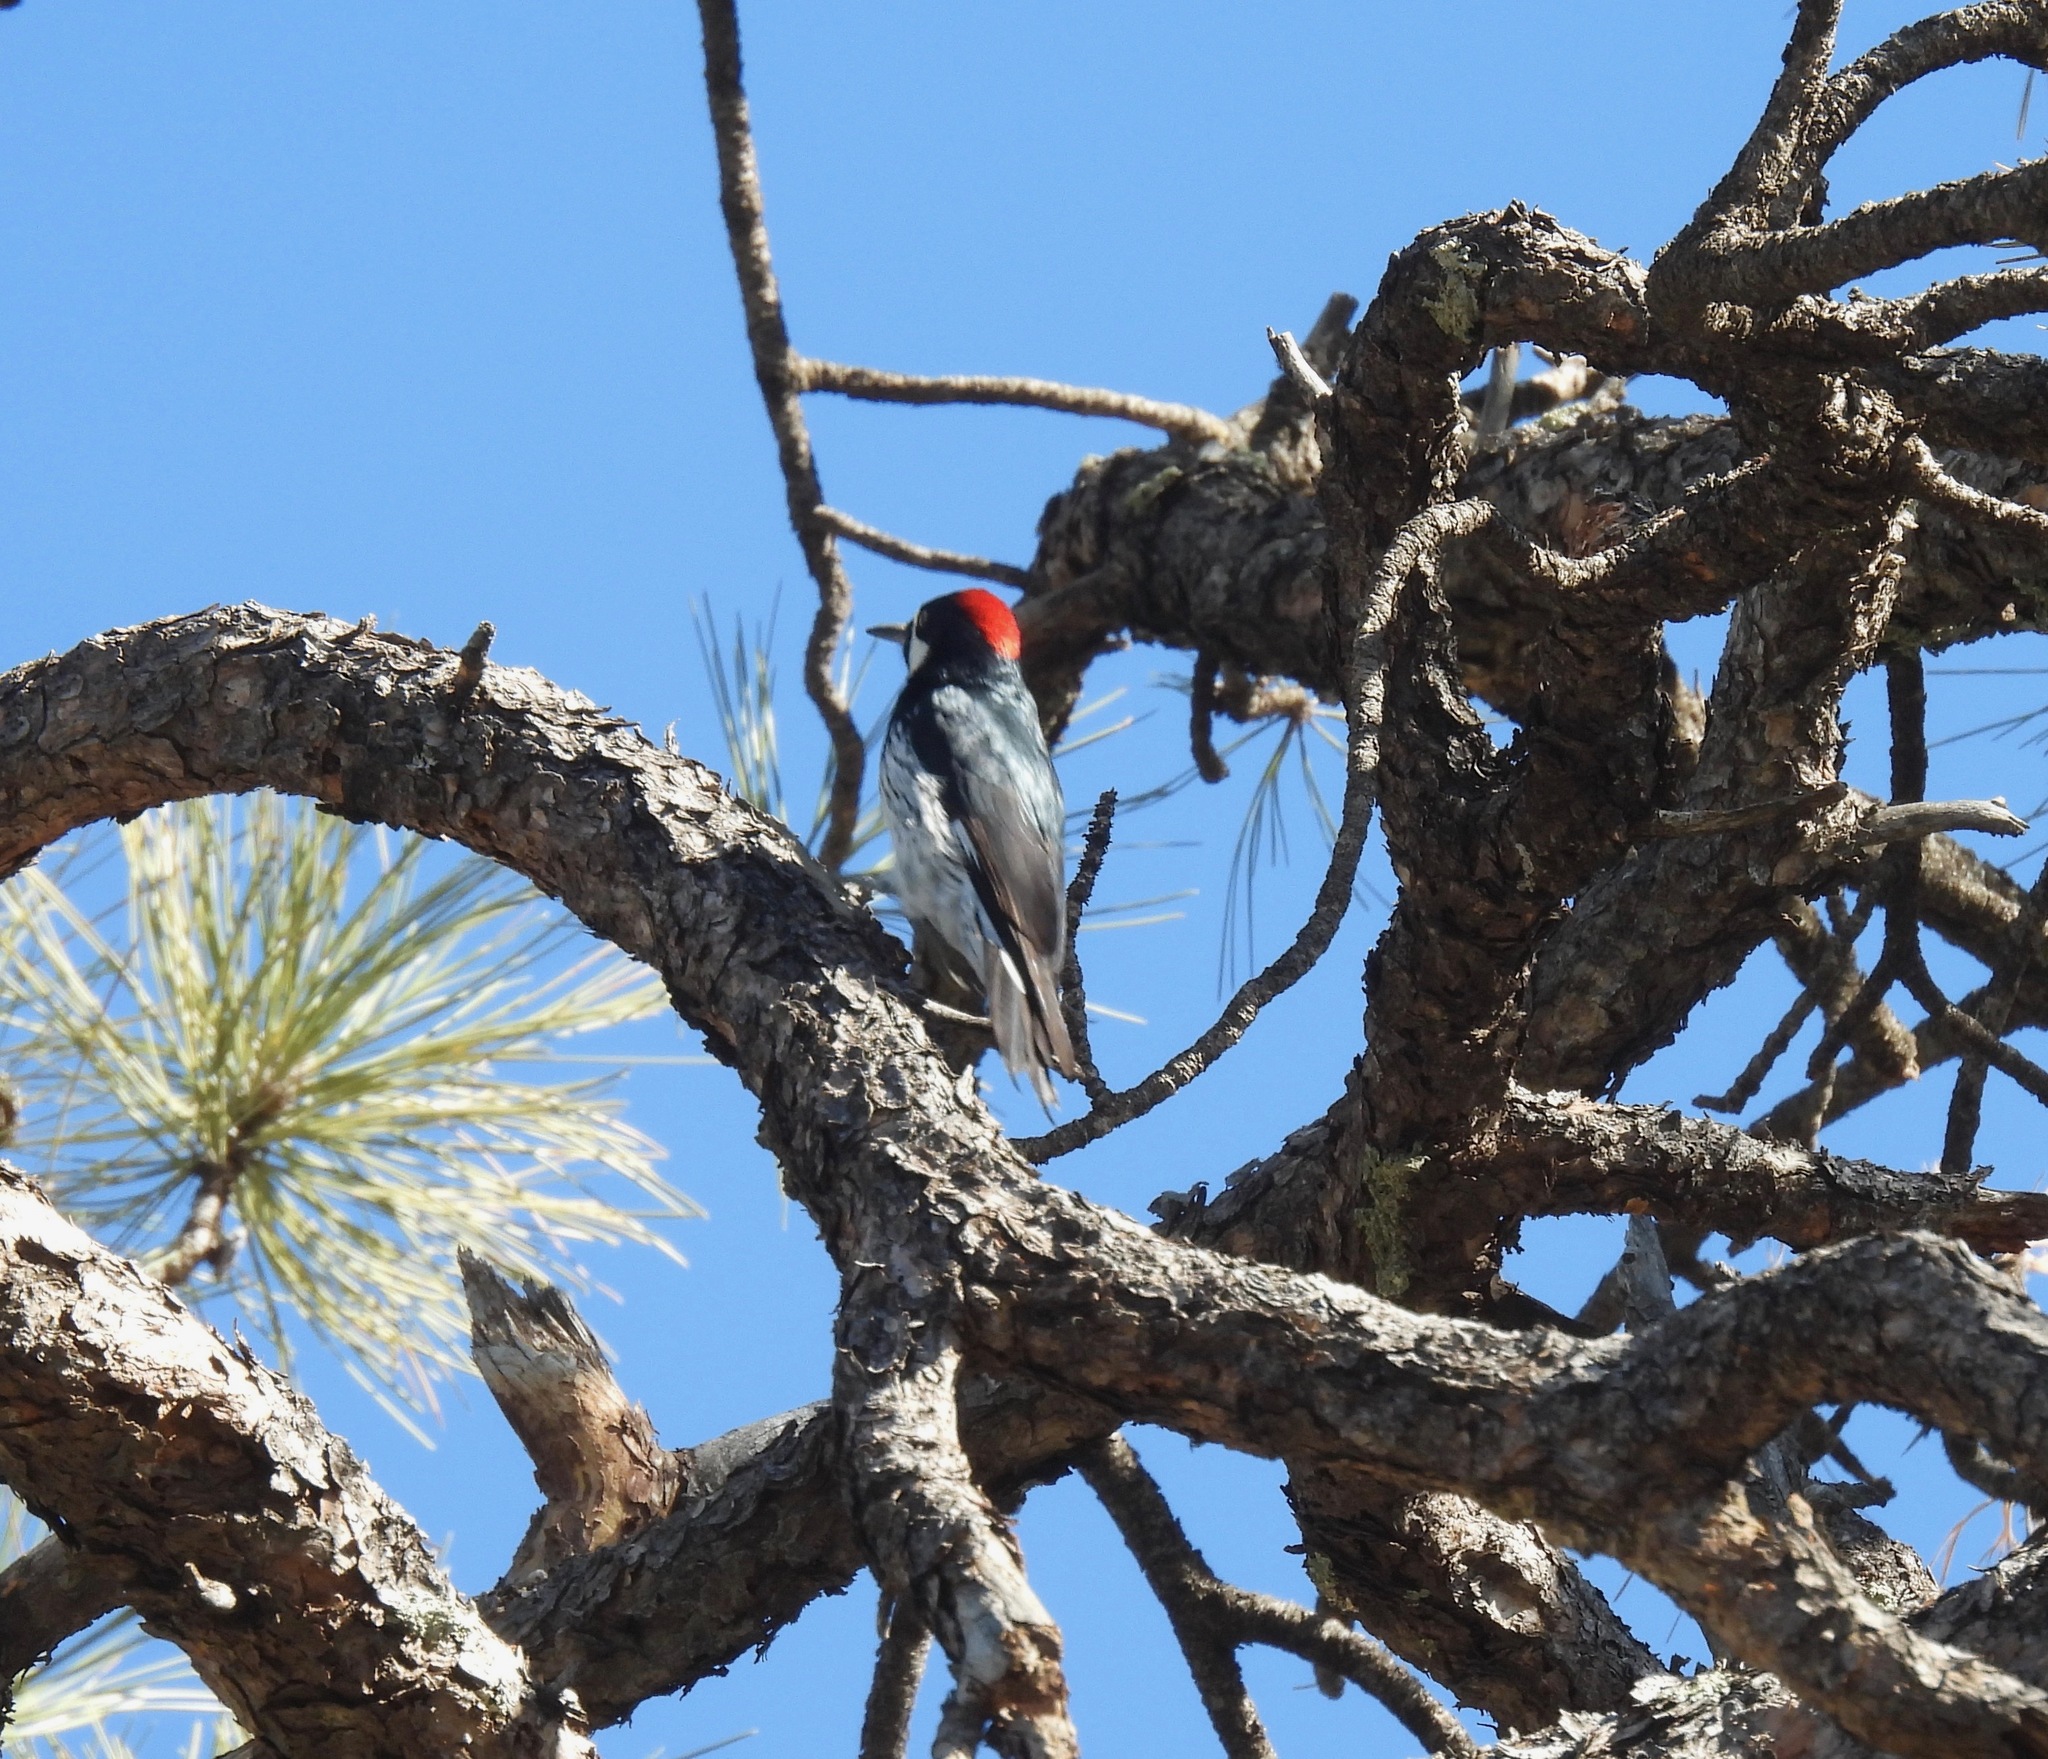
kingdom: Animalia
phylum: Chordata
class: Aves
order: Piciformes
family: Picidae
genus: Melanerpes
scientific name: Melanerpes formicivorus
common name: Acorn woodpecker
